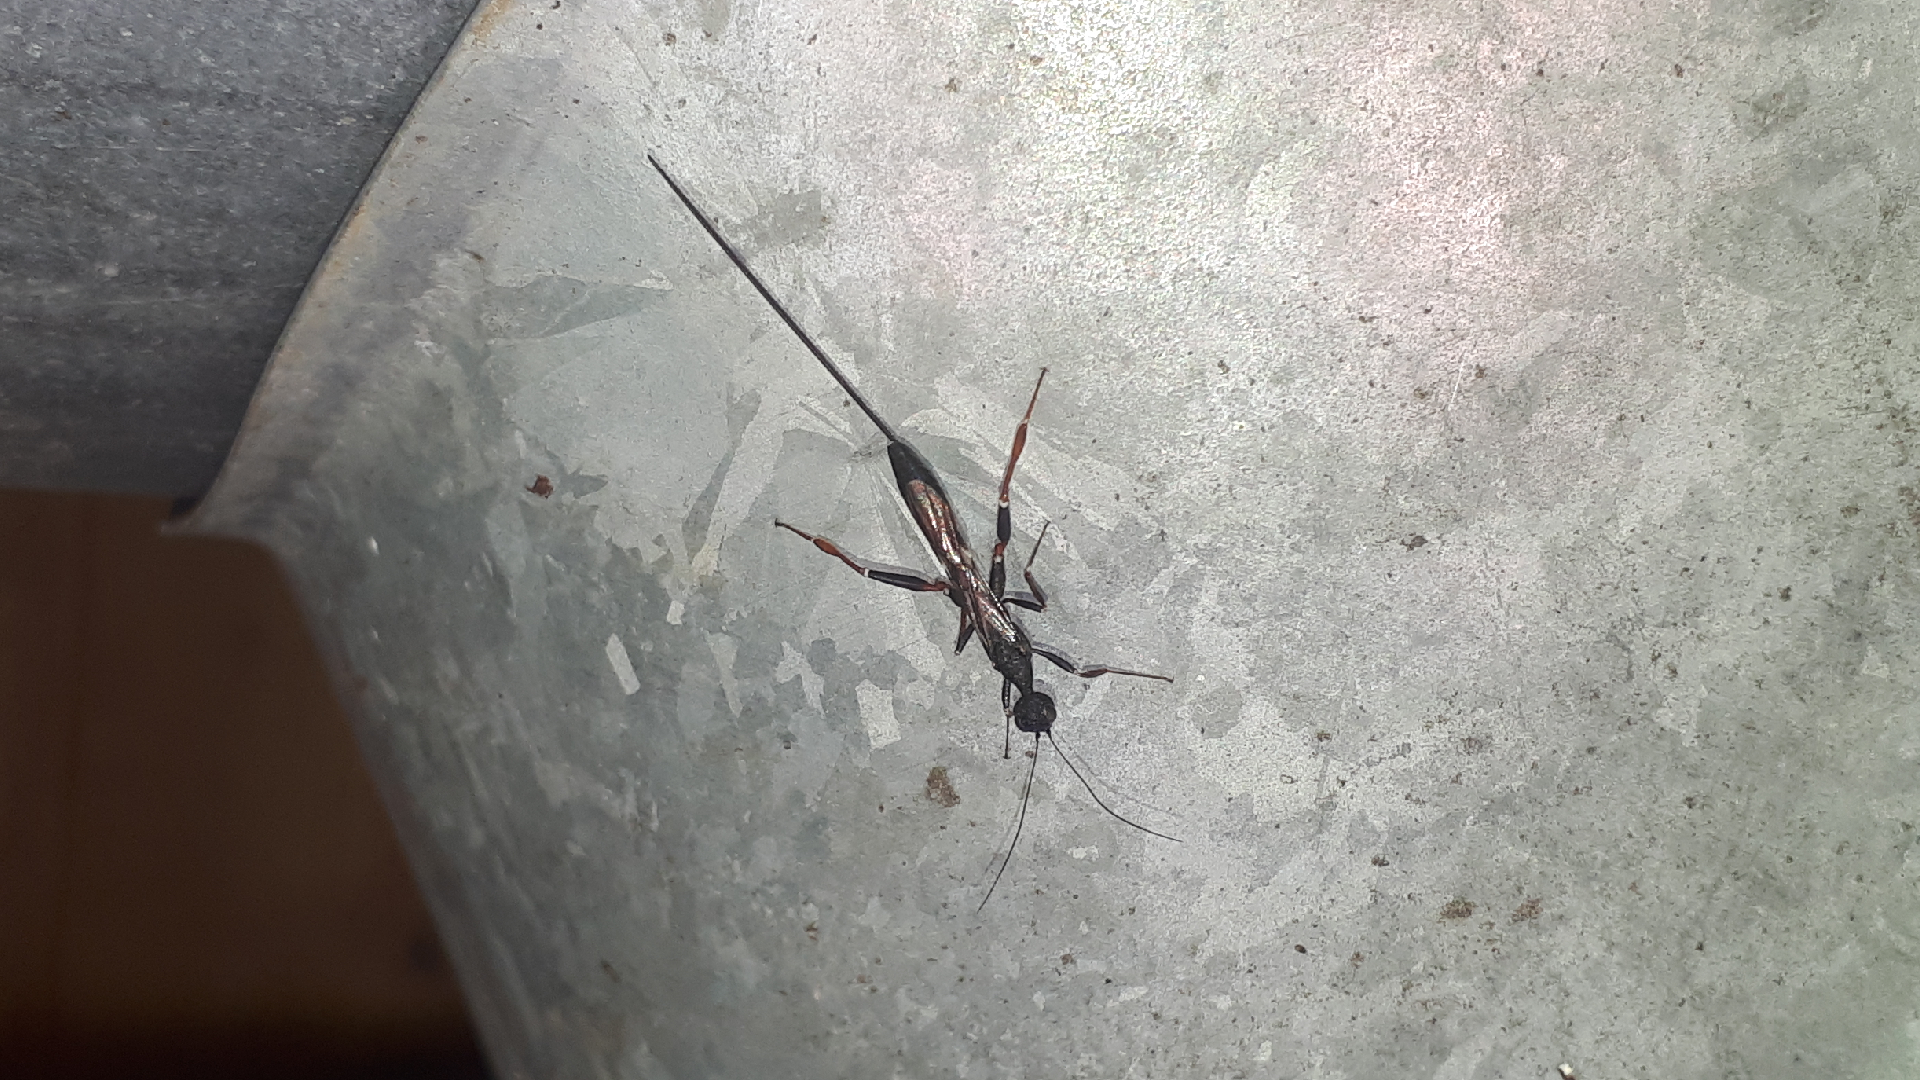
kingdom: Animalia
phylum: Arthropoda
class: Insecta
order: Hymenoptera
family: Stephanidae
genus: Stephanus
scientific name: Stephanus serrator
